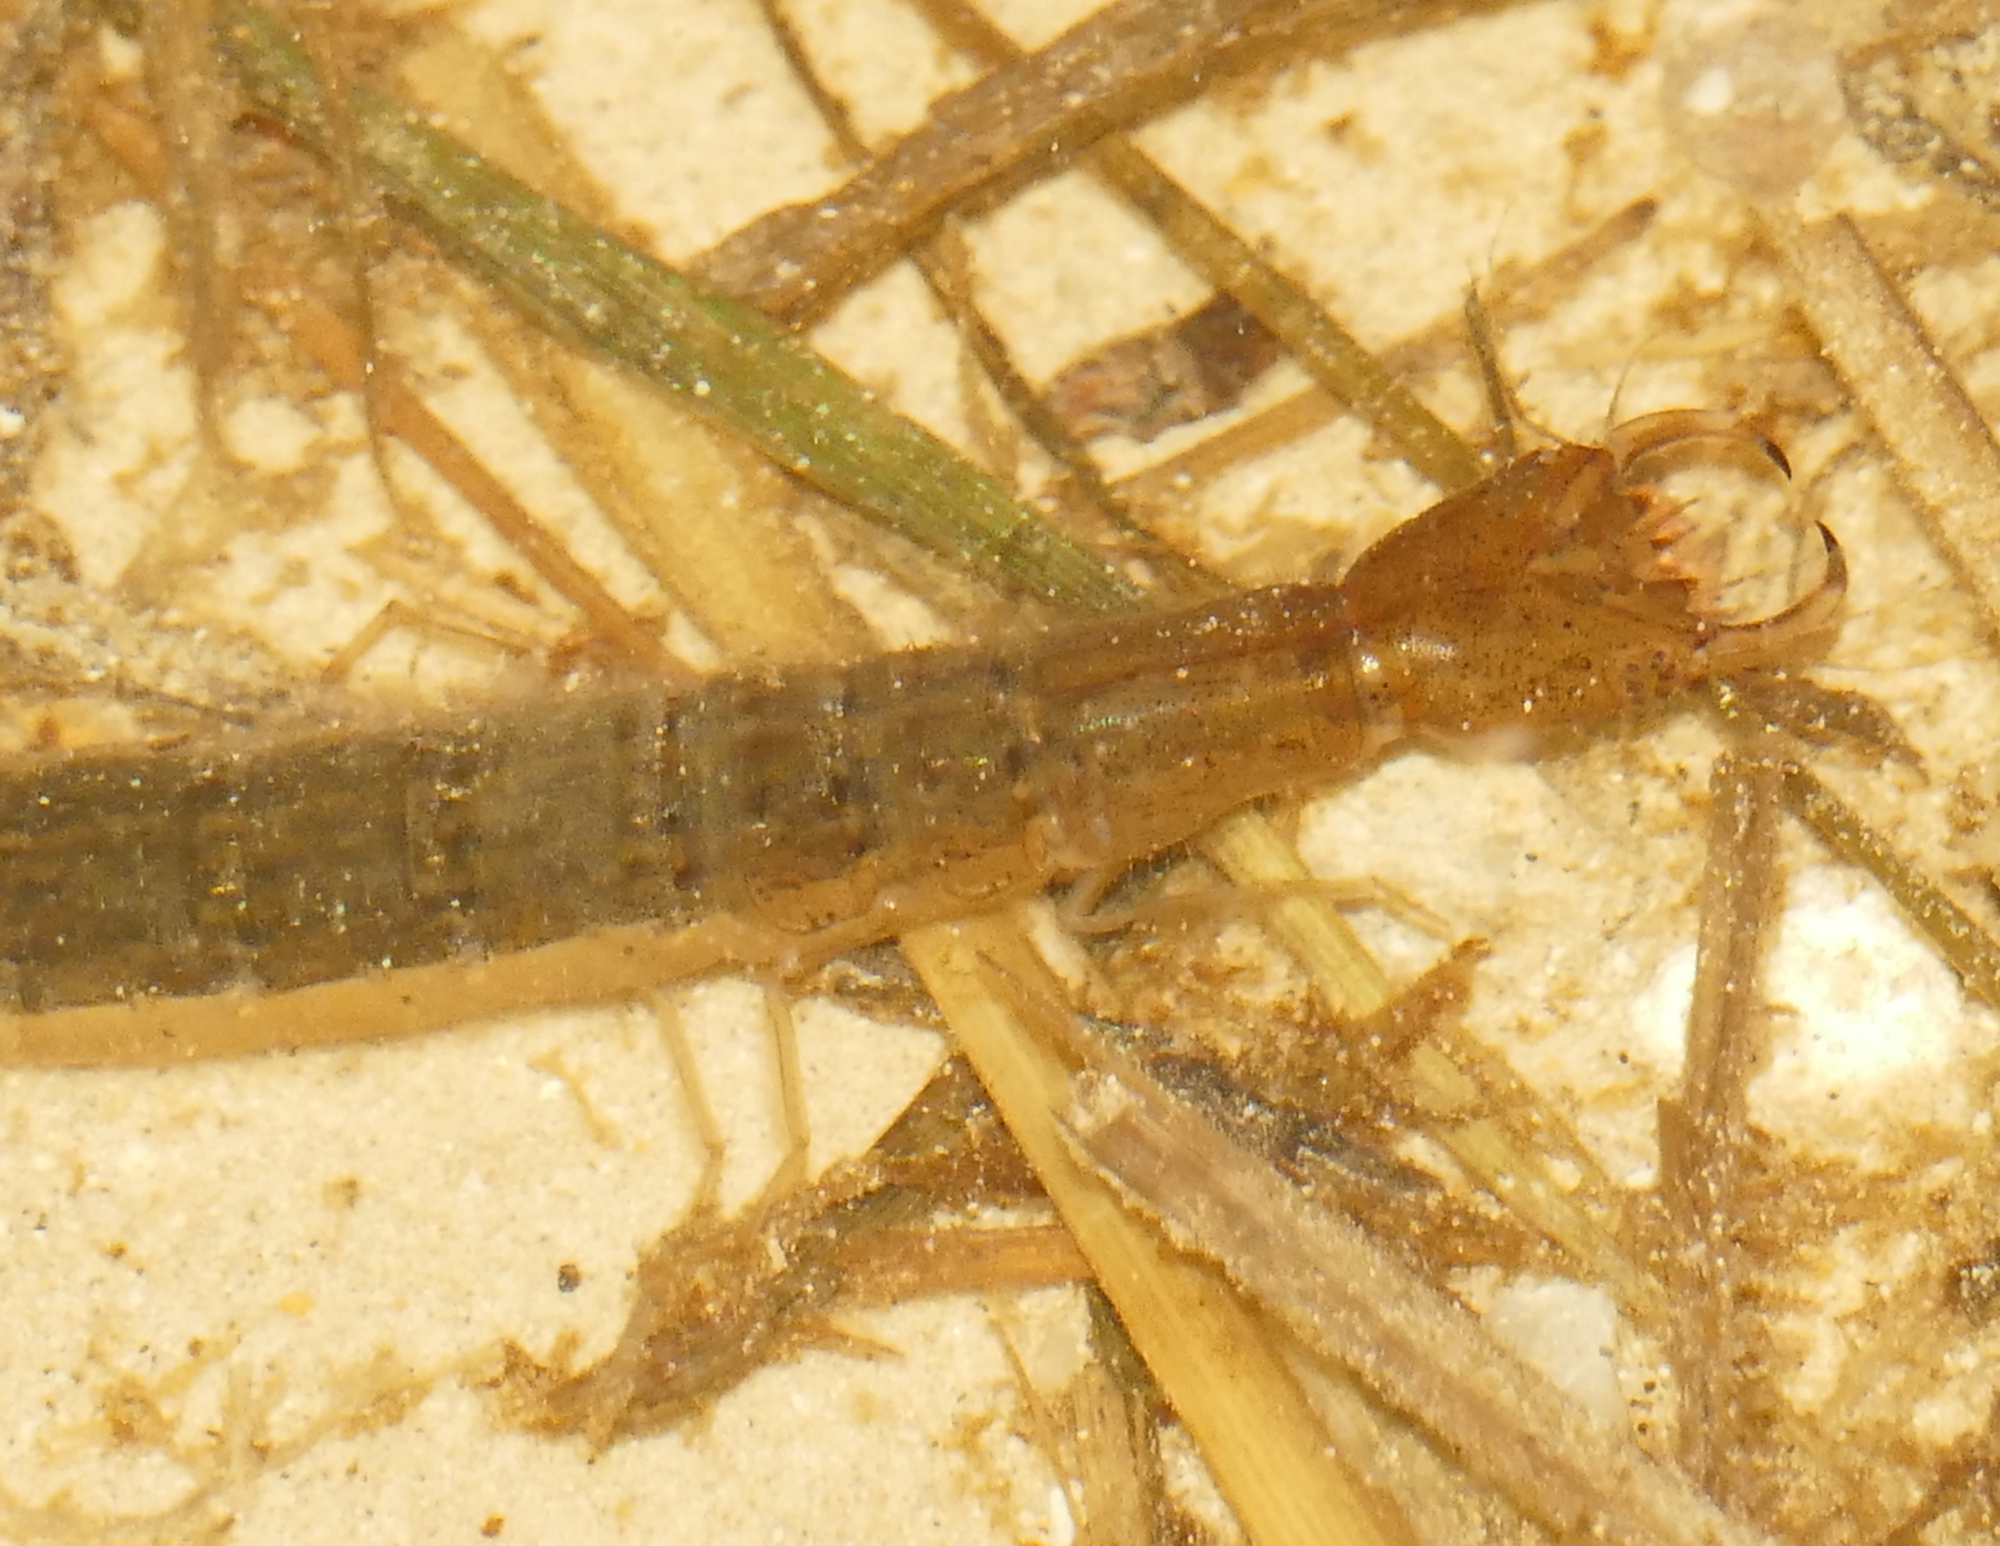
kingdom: Animalia
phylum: Arthropoda
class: Insecta
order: Coleoptera
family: Dytiscidae
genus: Cybister
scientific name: Cybister fimbriolatus
